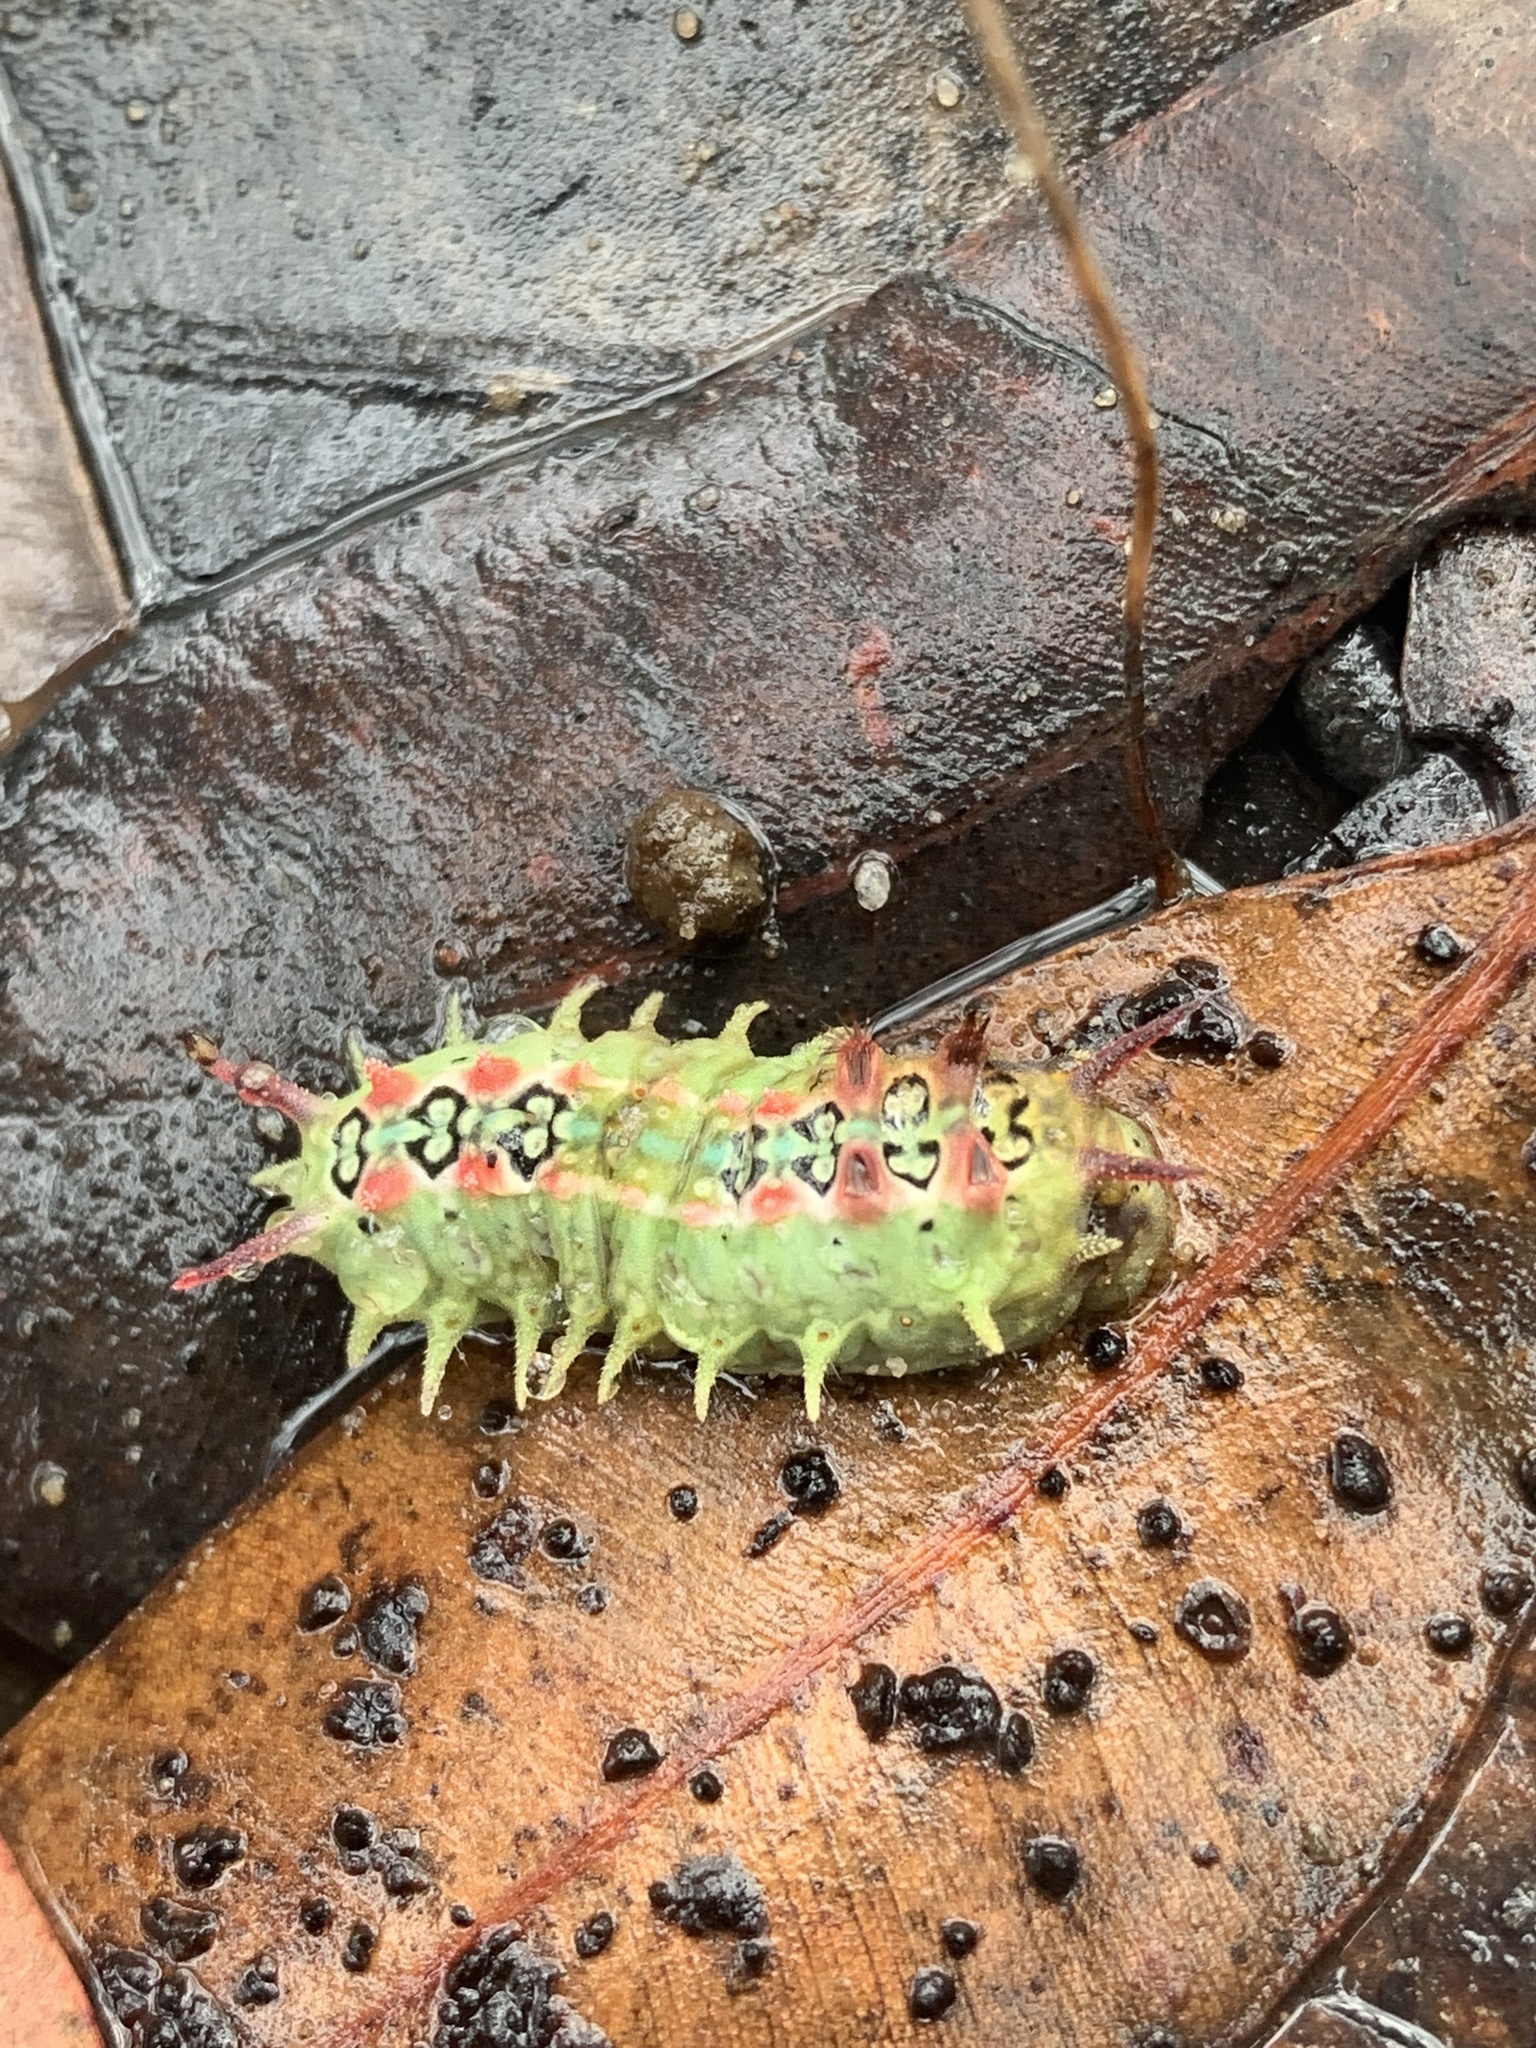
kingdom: Animalia
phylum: Arthropoda
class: Insecta
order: Lepidoptera
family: Limacodidae
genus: Doratifera
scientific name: Doratifera quadriguttata
